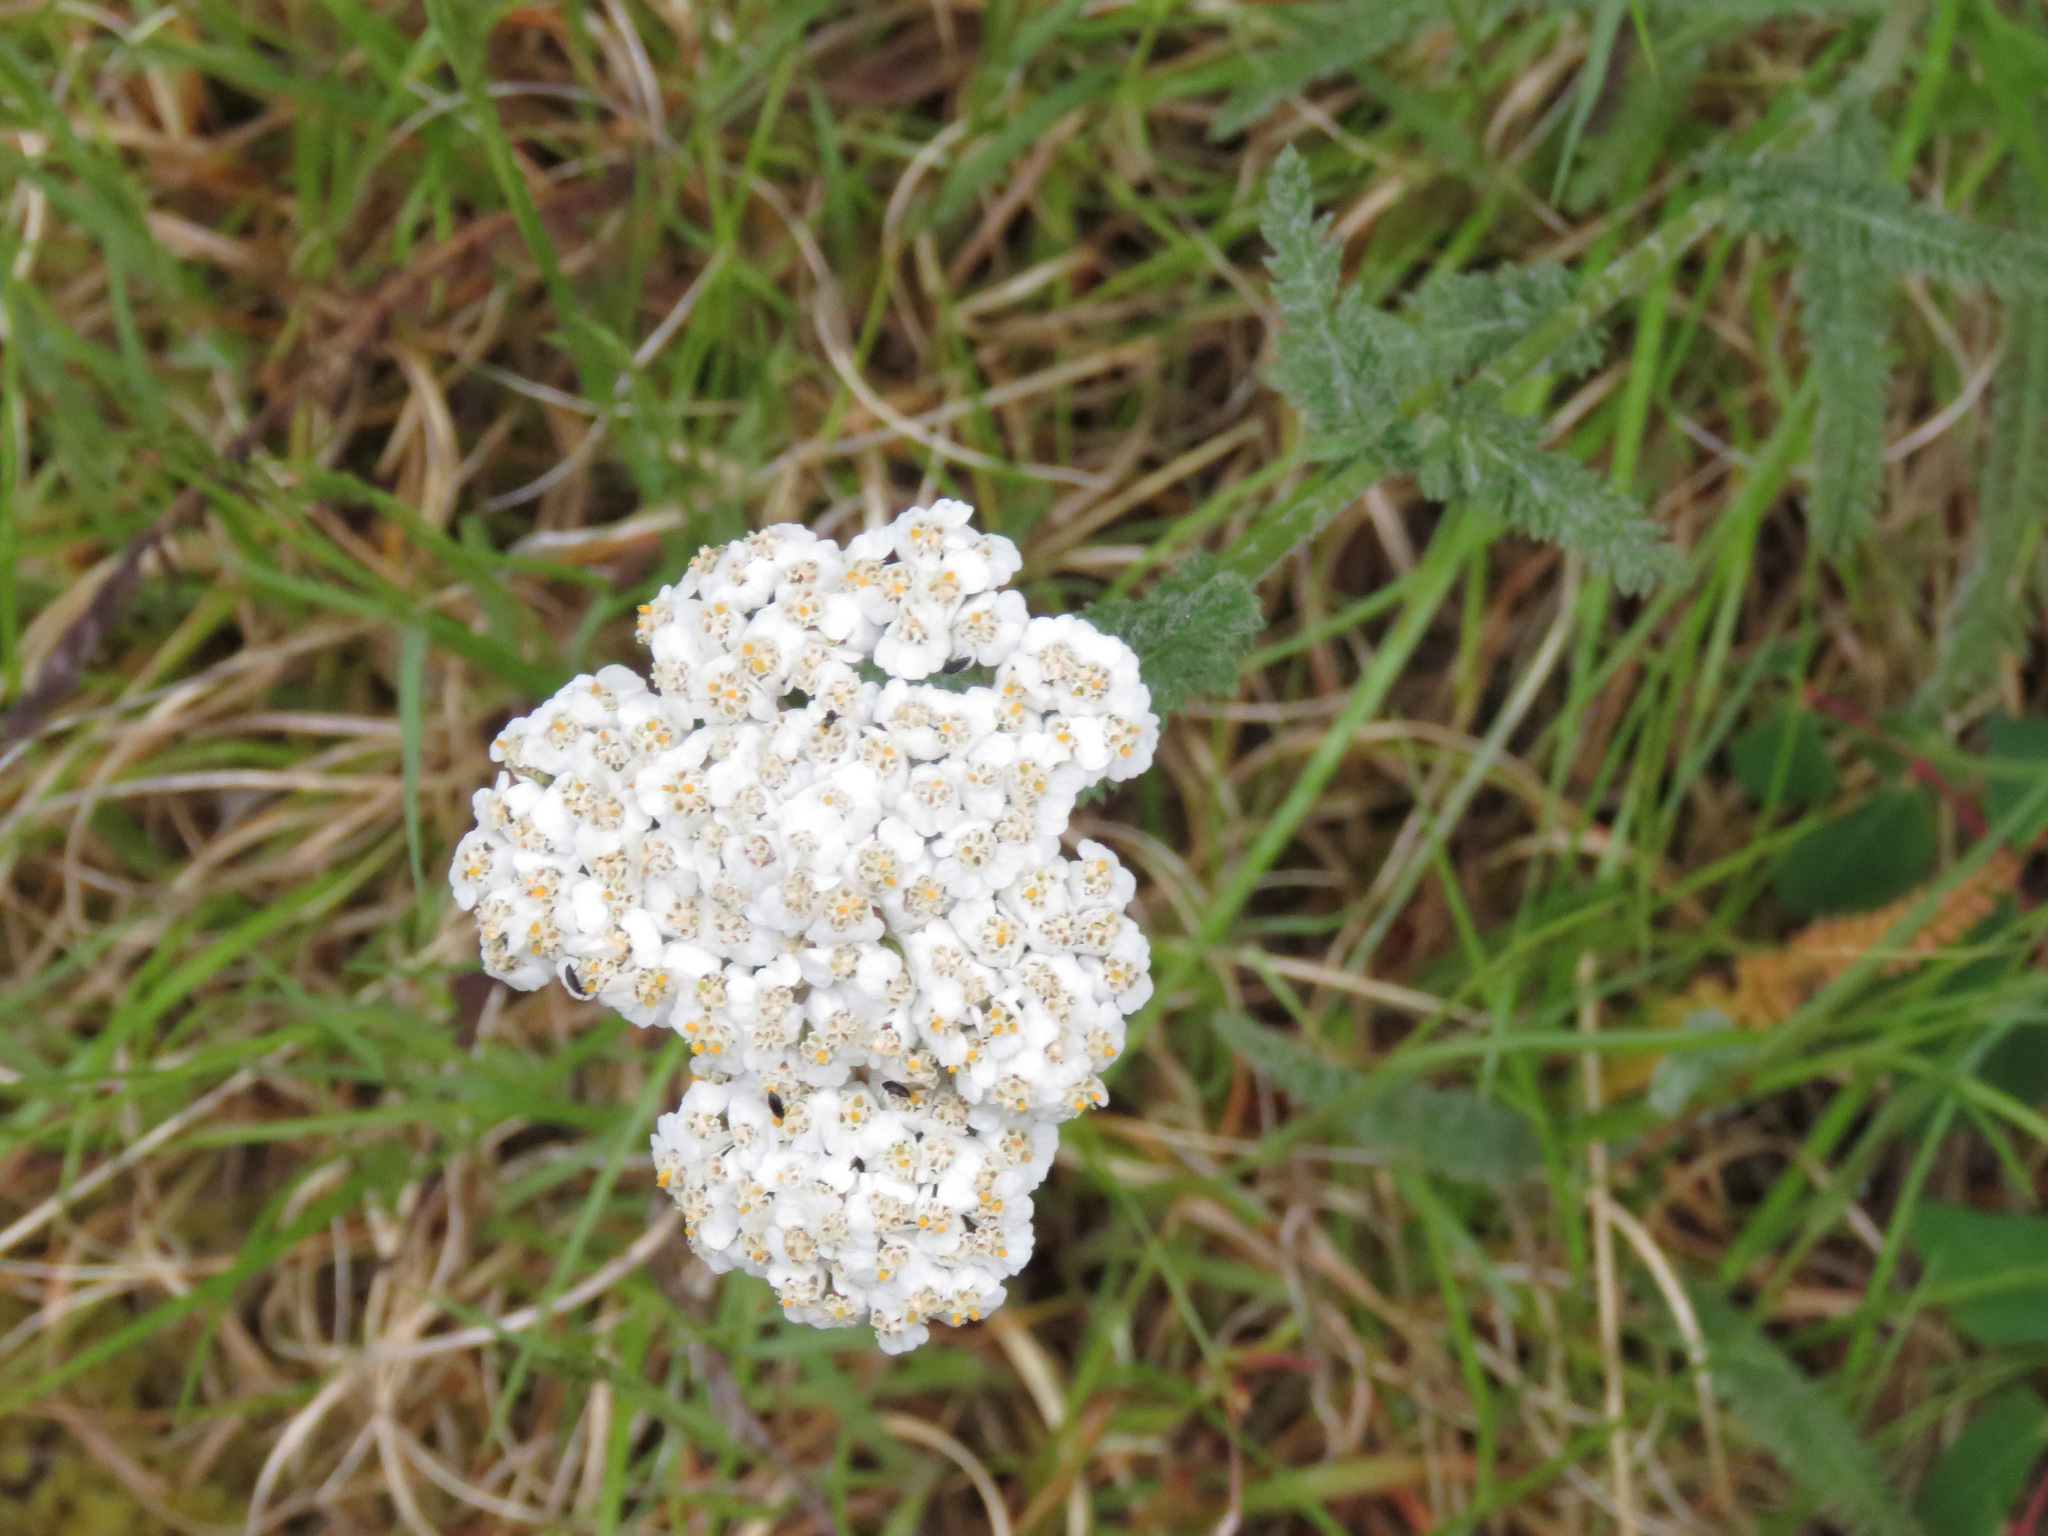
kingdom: Plantae
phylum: Tracheophyta
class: Magnoliopsida
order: Asterales
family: Asteraceae
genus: Achillea
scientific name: Achillea millefolium
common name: Yarrow
